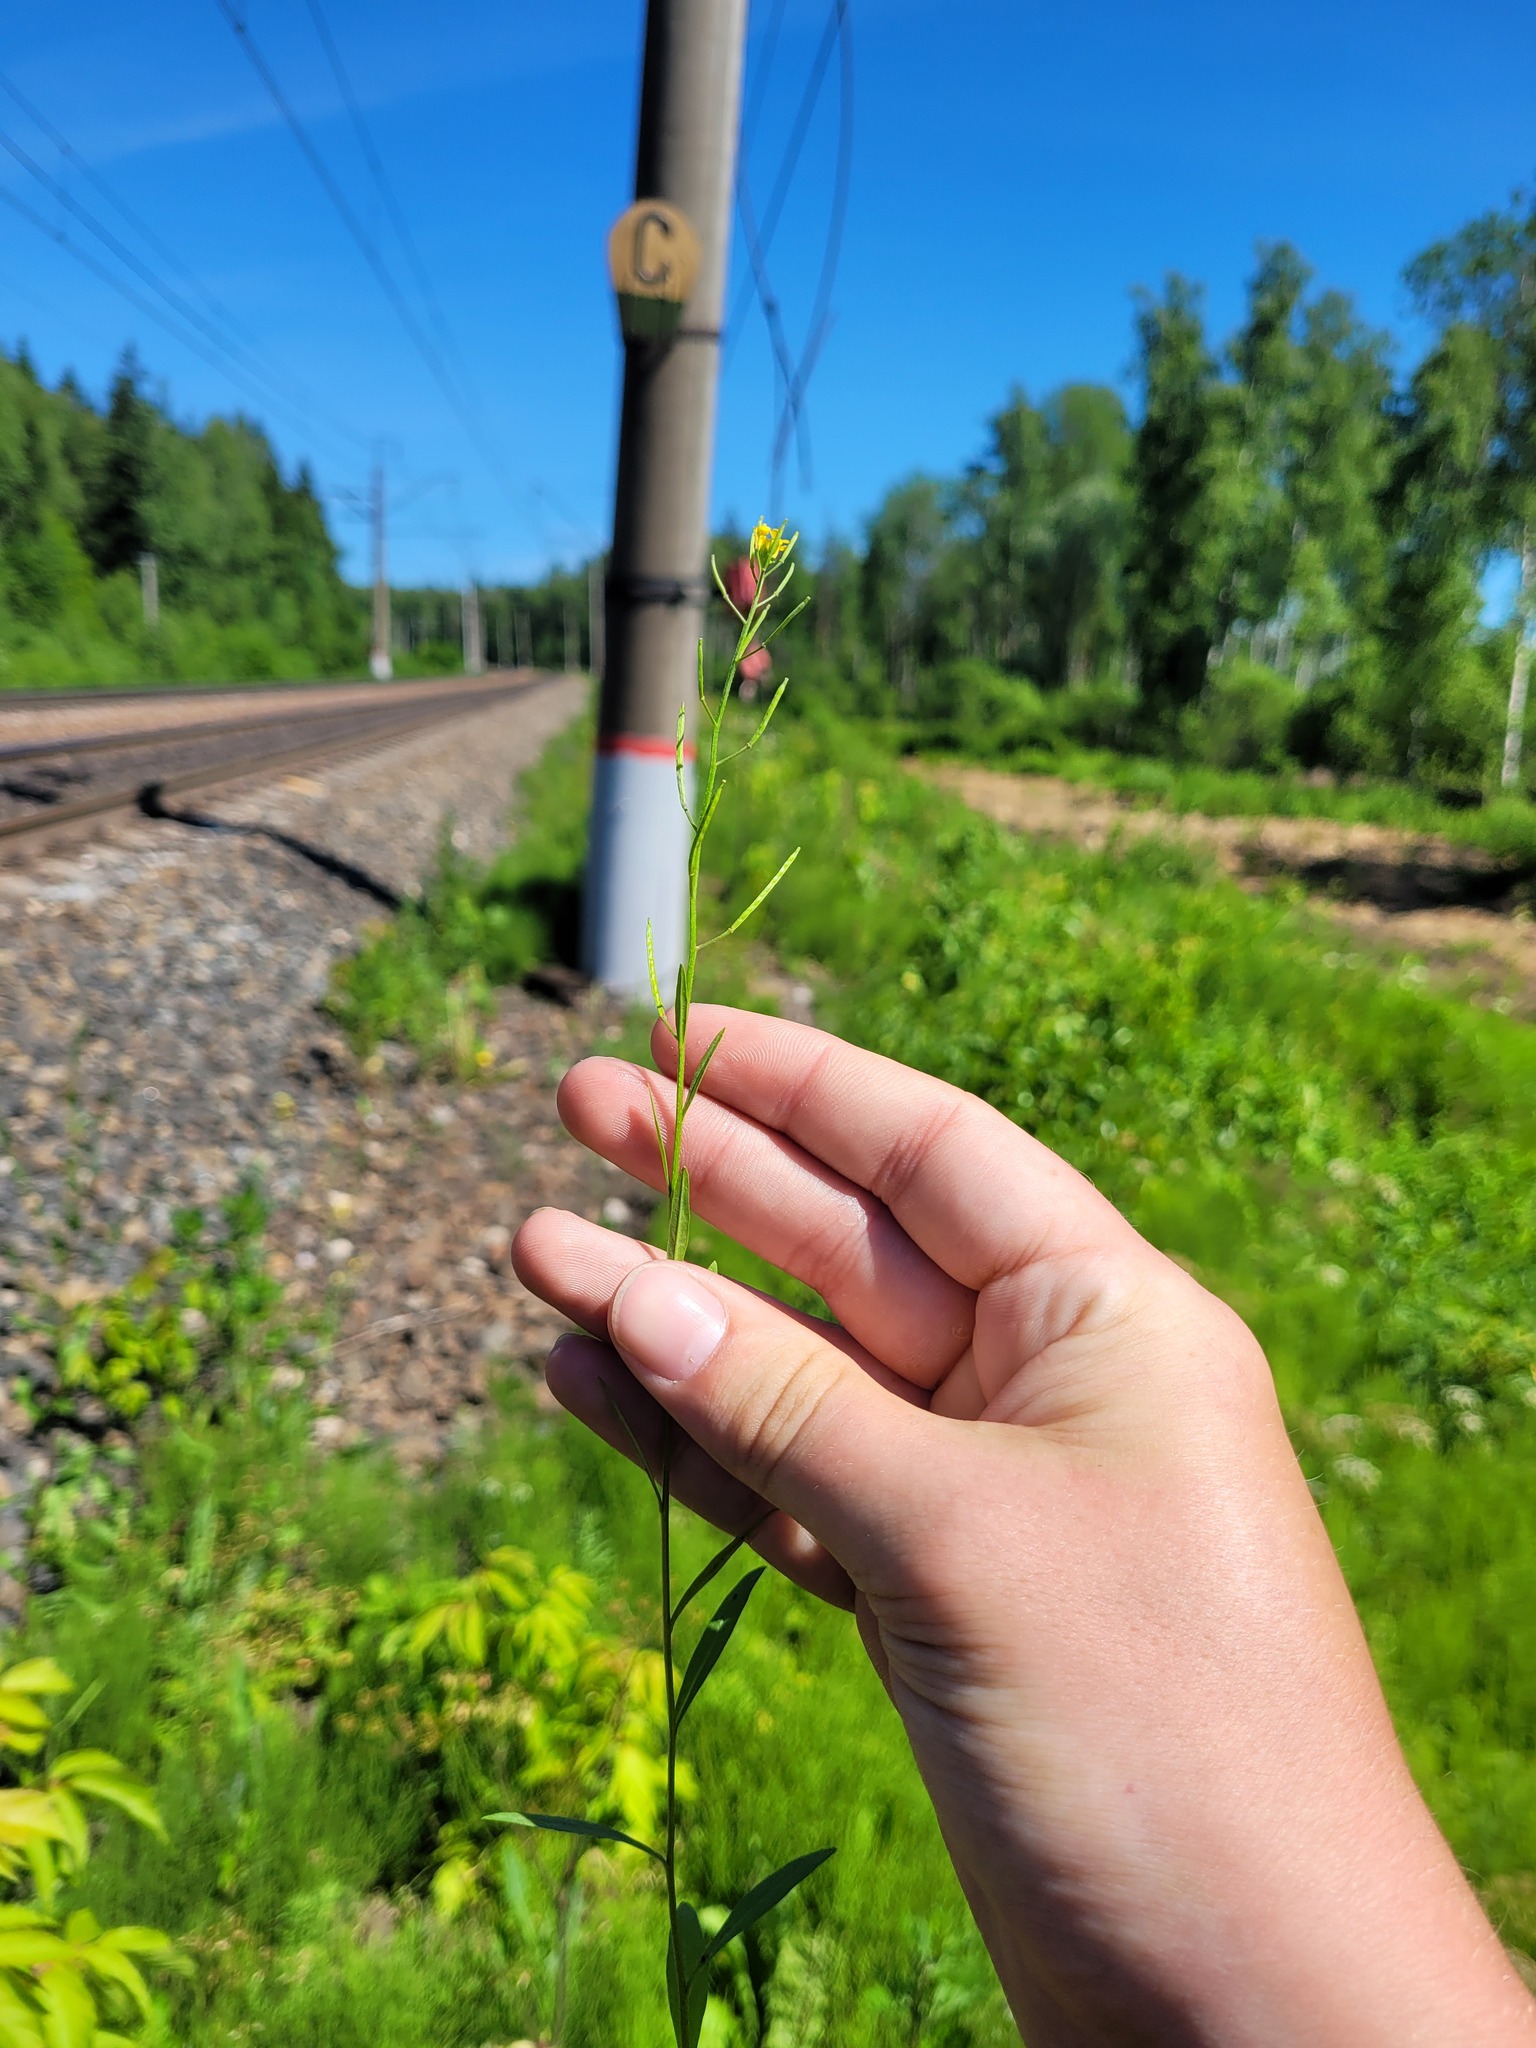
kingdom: Plantae
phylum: Tracheophyta
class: Magnoliopsida
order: Brassicales
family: Brassicaceae
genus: Erysimum
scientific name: Erysimum cheiranthoides
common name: Treacle mustard
